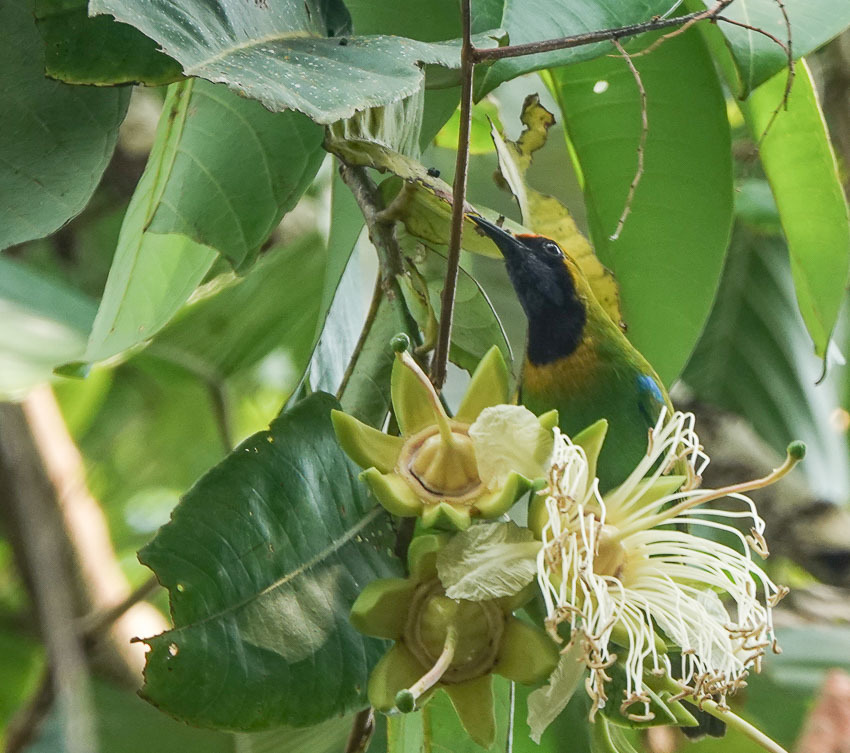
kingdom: Animalia
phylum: Chordata
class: Aves
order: Passeriformes
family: Chloropseidae
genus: Chloropsis
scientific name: Chloropsis aurifrons
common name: Golden-fronted leafbird
